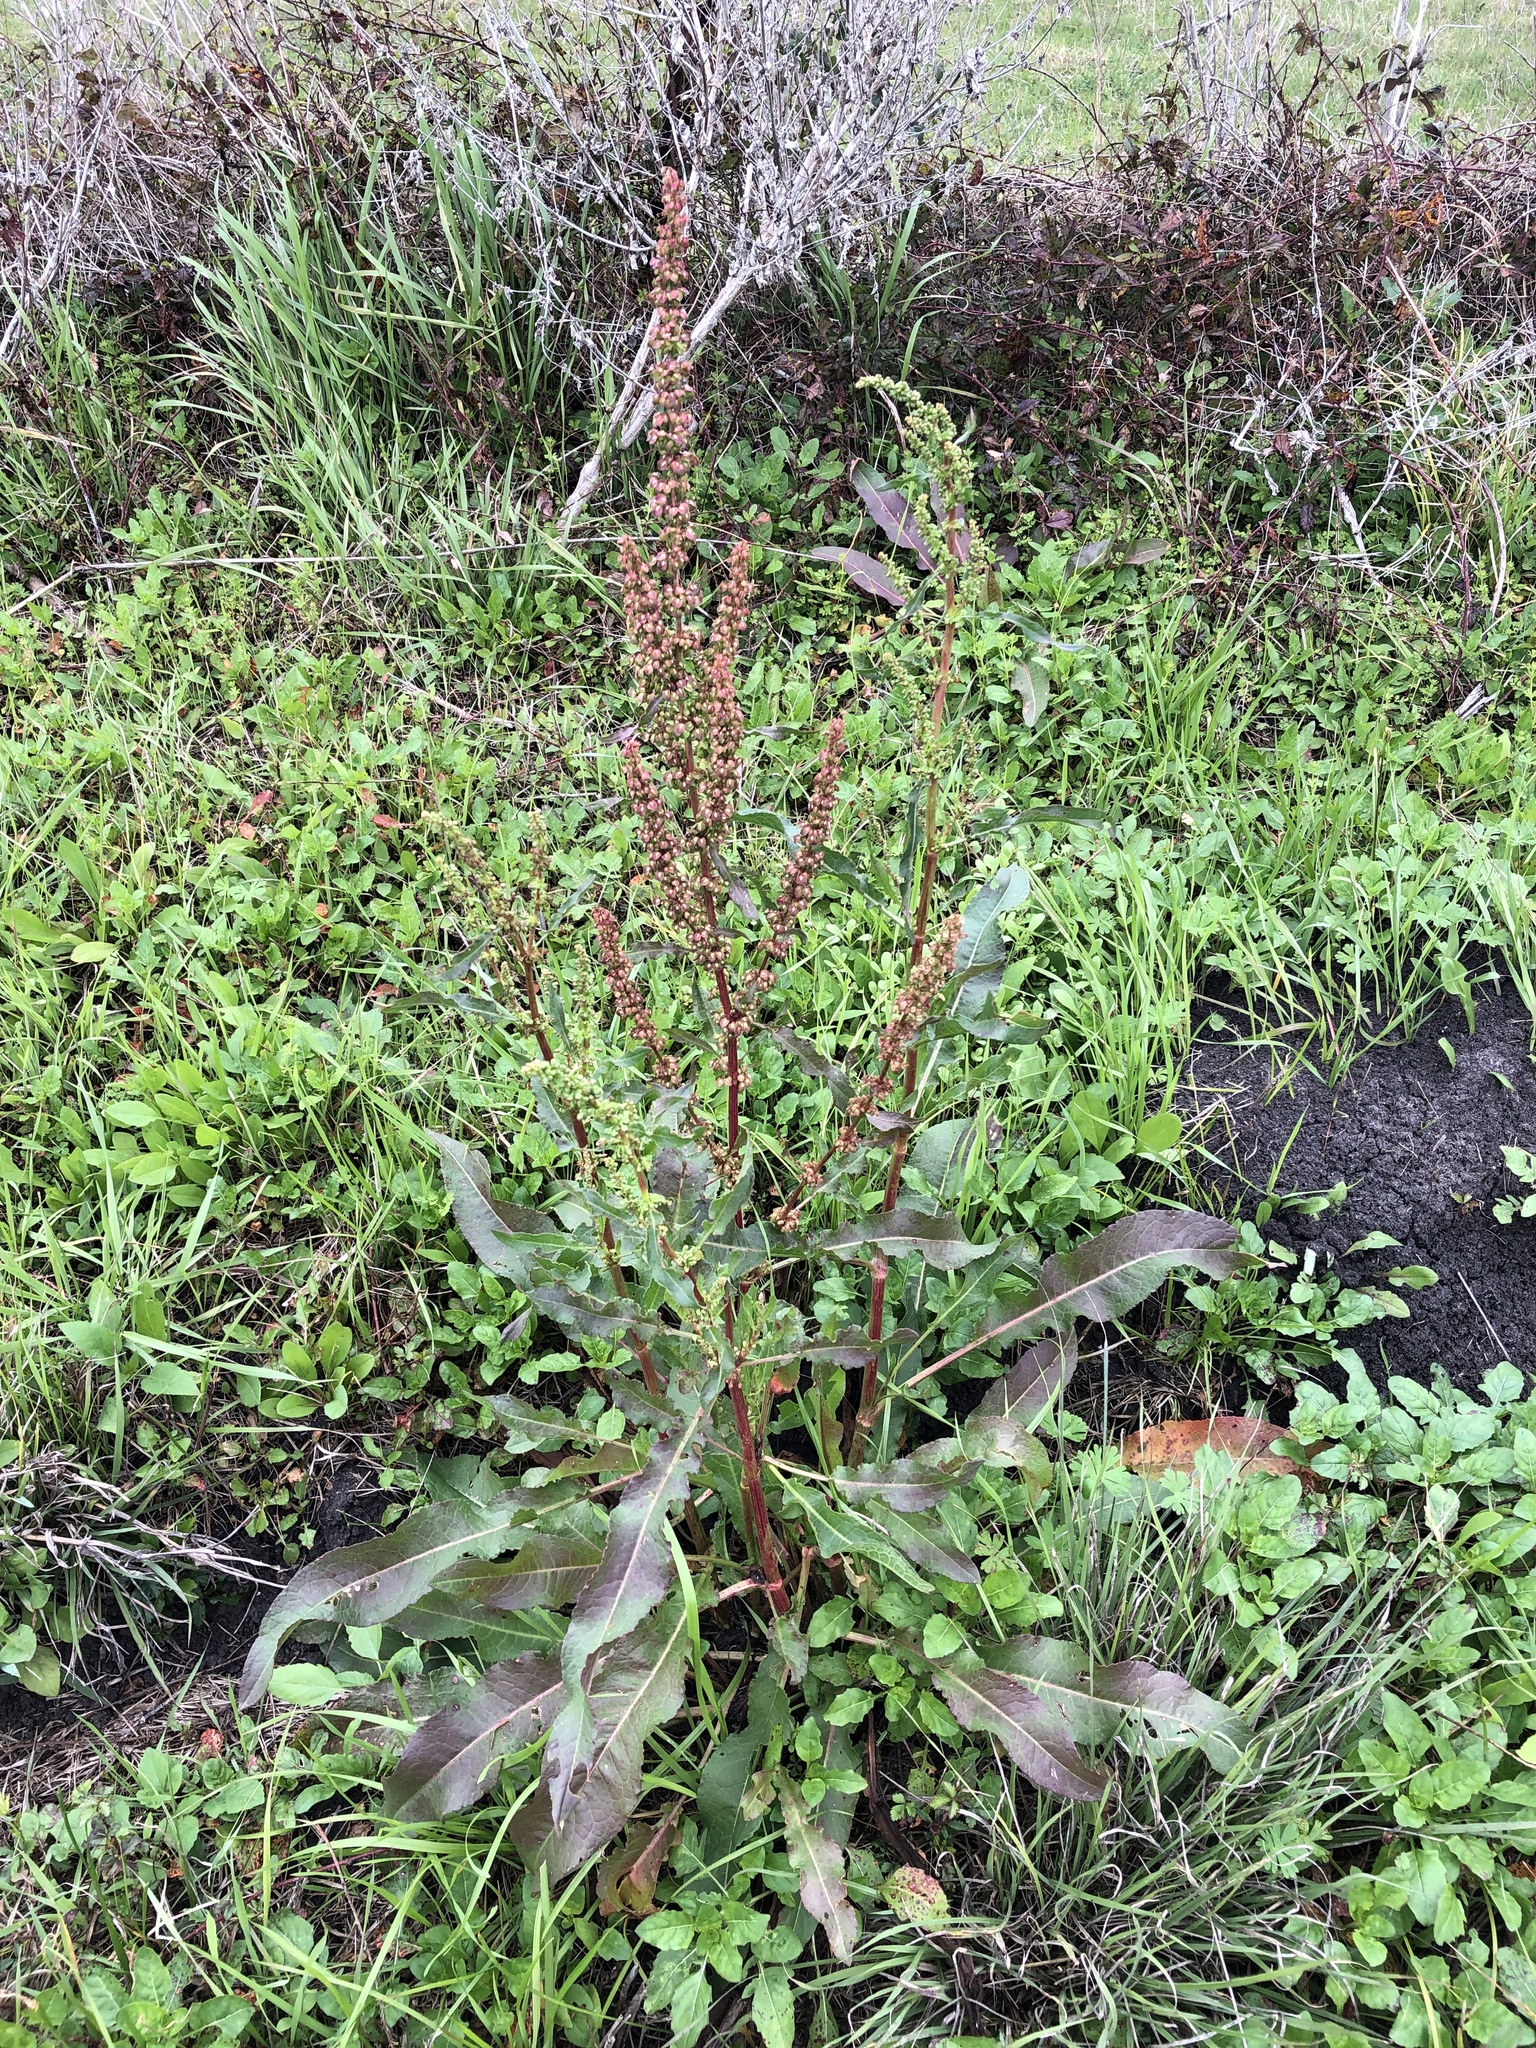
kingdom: Plantae
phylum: Tracheophyta
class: Magnoliopsida
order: Caryophyllales
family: Polygonaceae
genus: Rumex
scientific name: Rumex crispus
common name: Curled dock
